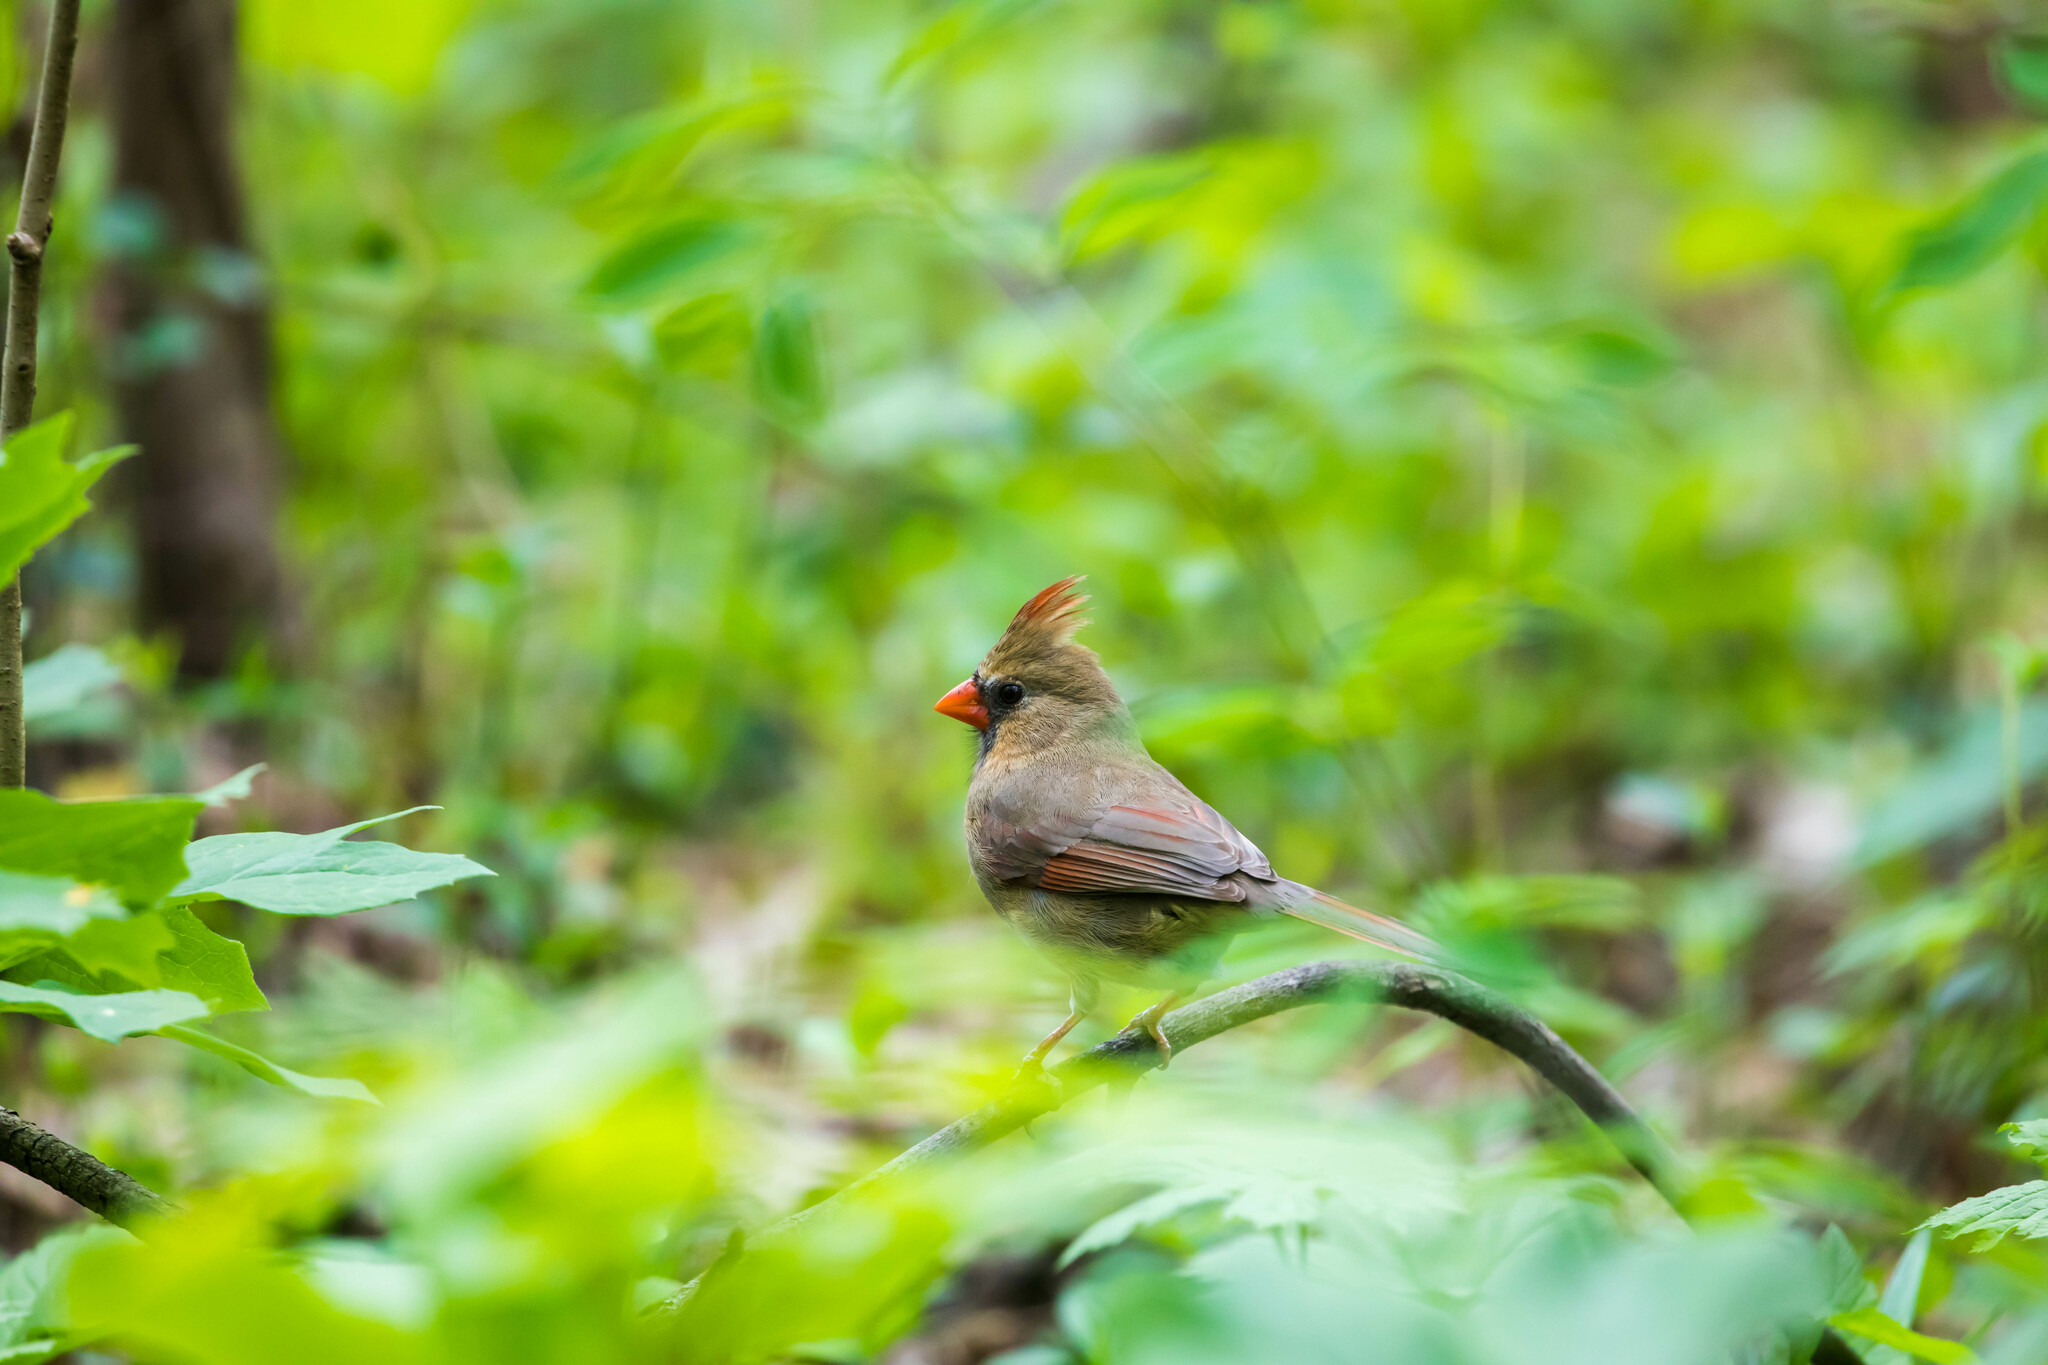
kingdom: Animalia
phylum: Chordata
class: Aves
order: Passeriformes
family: Cardinalidae
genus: Cardinalis
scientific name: Cardinalis cardinalis
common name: Northern cardinal
